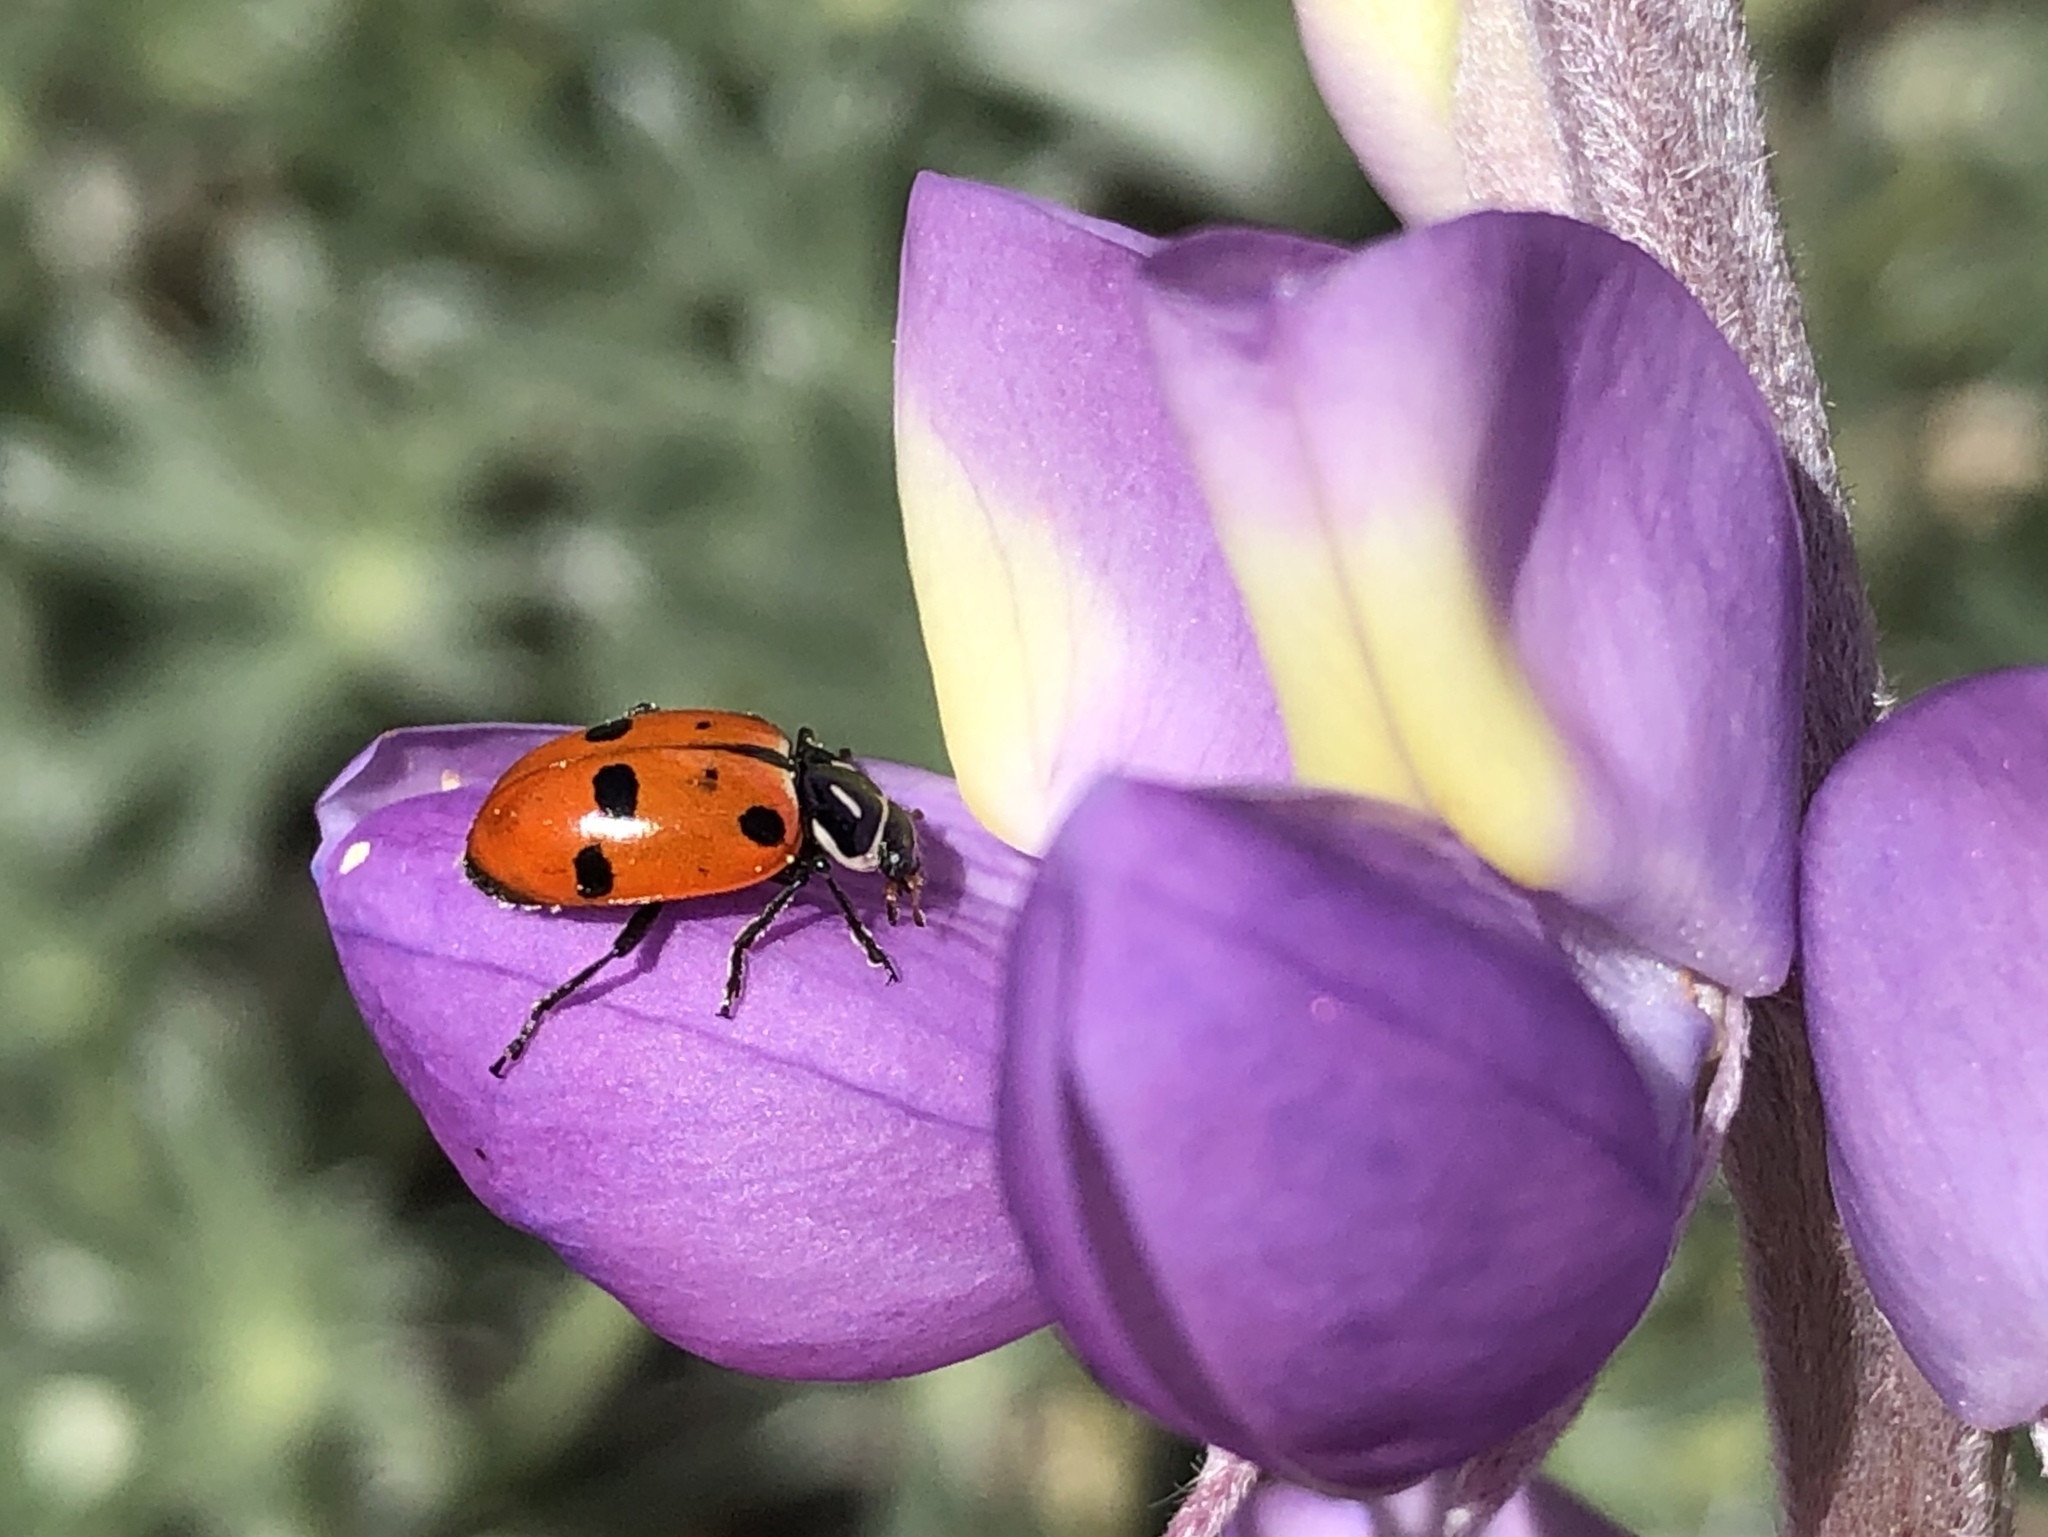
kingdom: Animalia
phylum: Arthropoda
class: Insecta
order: Coleoptera
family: Coccinellidae
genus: Hippodamia
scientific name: Hippodamia convergens
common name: Convergent lady beetle
